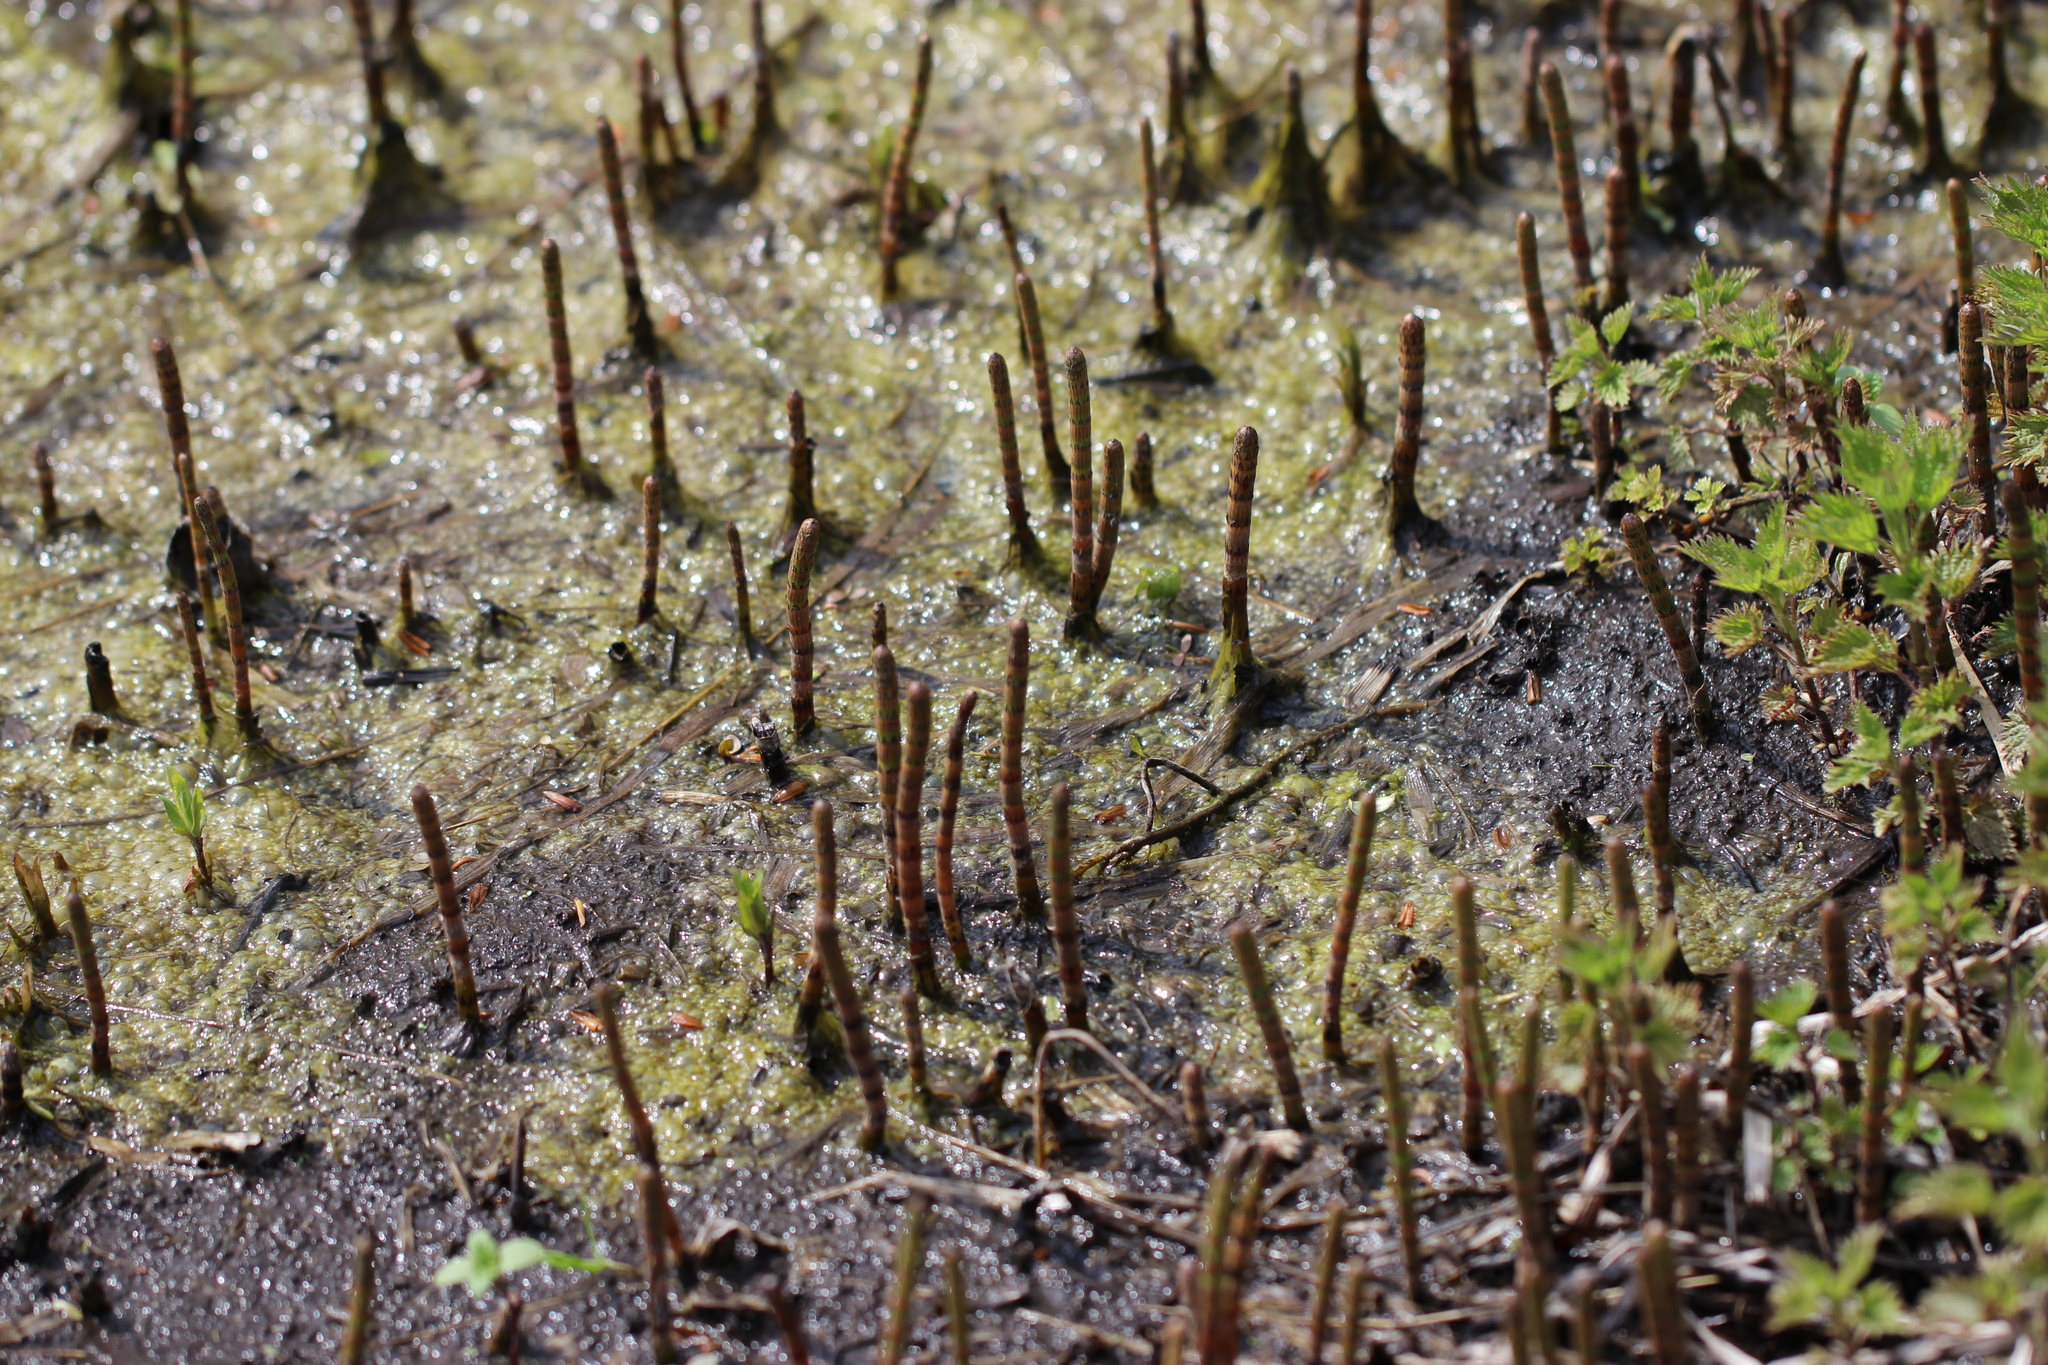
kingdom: Plantae
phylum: Tracheophyta
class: Polypodiopsida
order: Equisetales
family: Equisetaceae
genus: Equisetum
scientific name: Equisetum fluviatile
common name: Water horsetail
